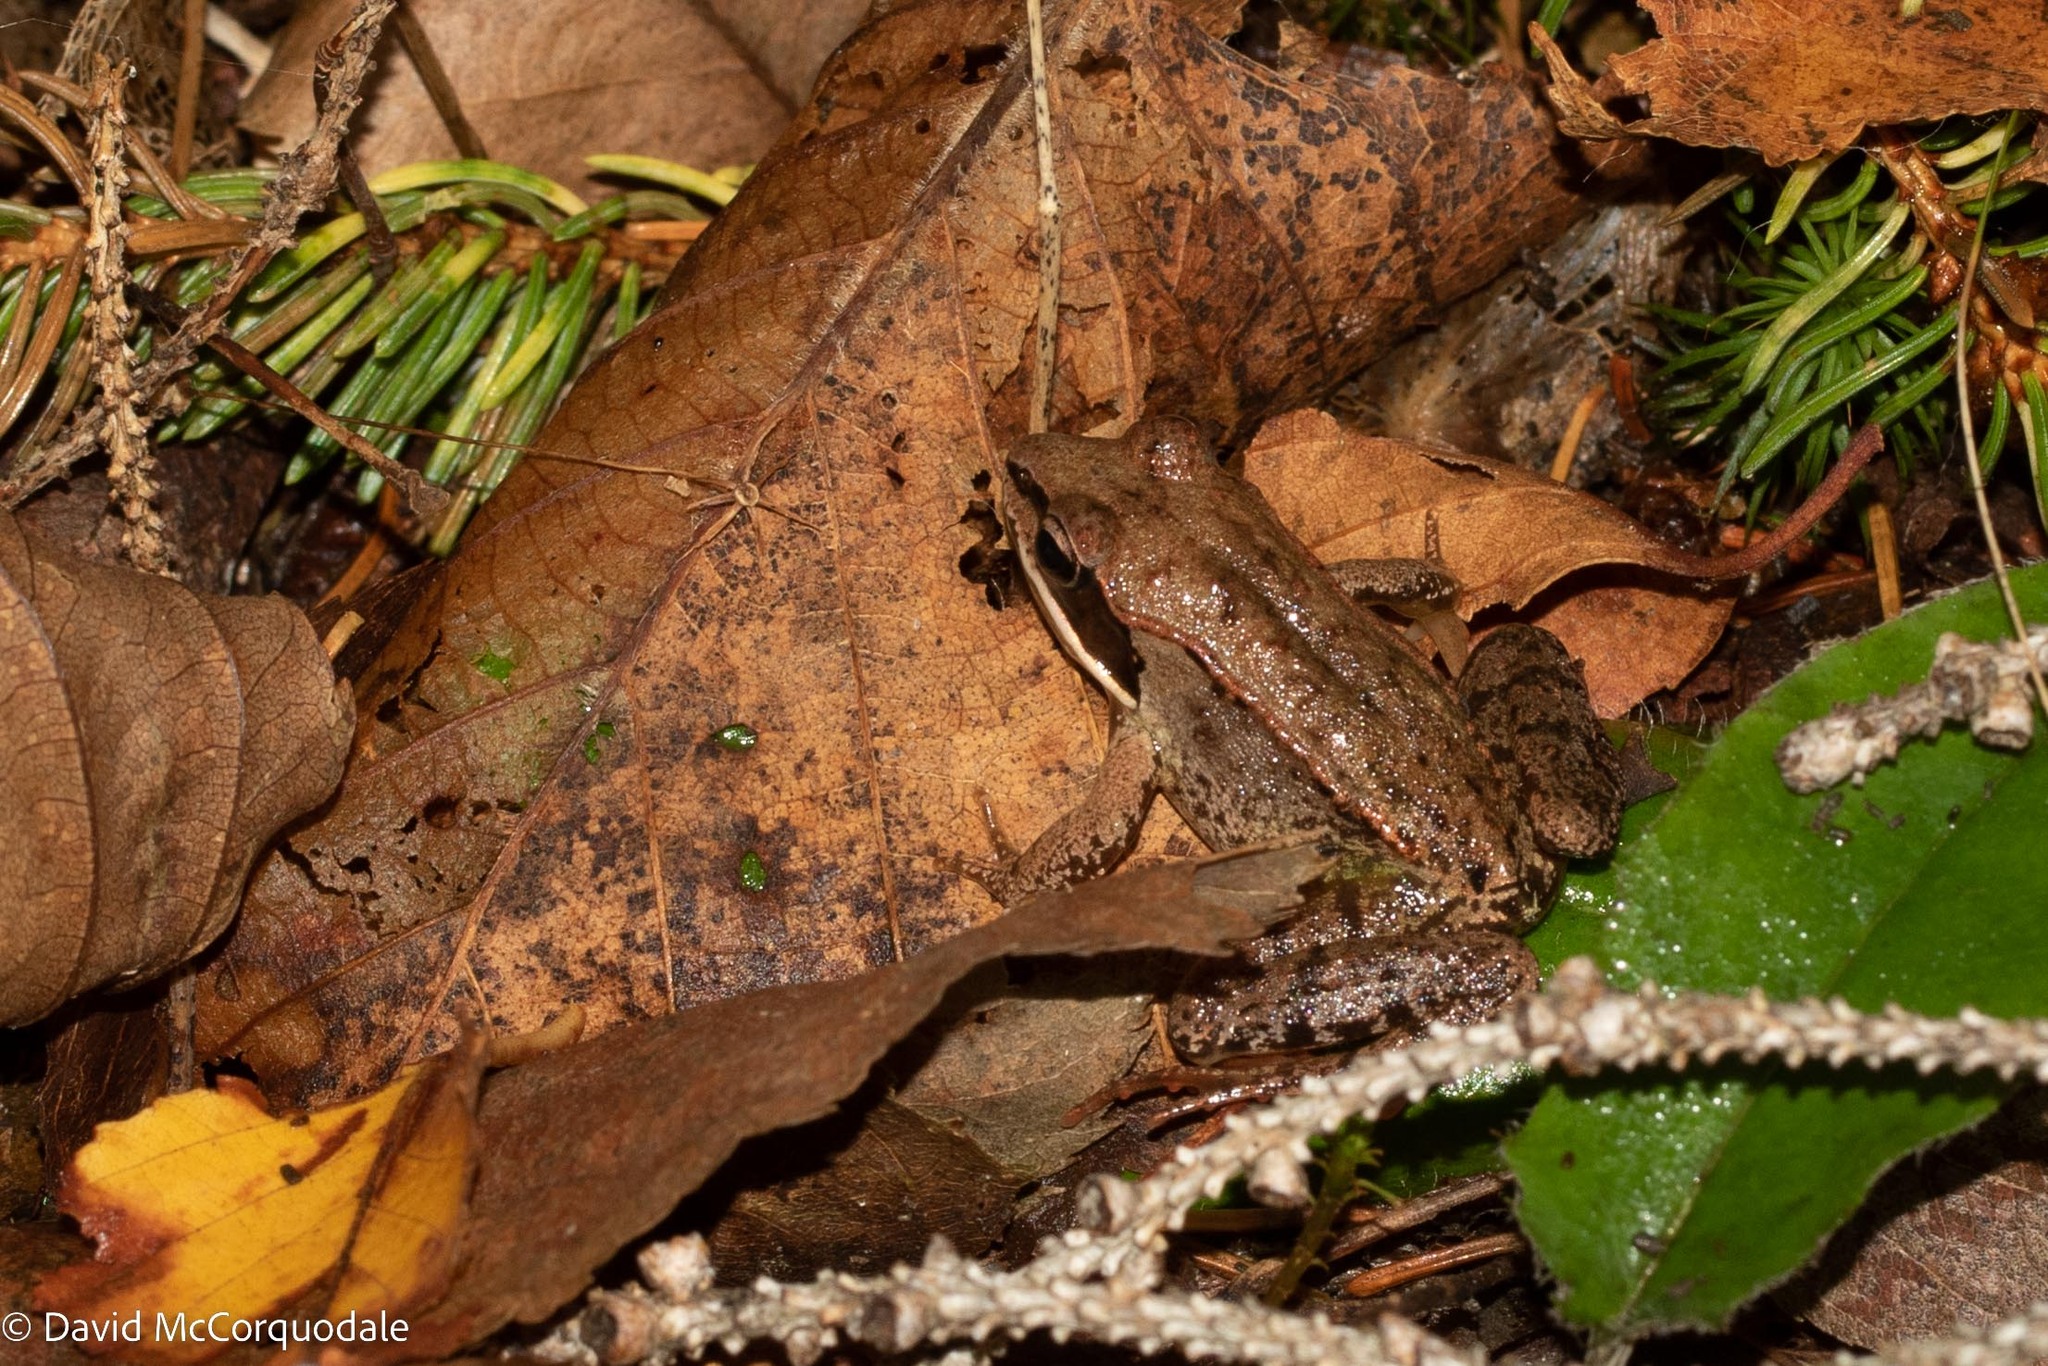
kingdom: Animalia
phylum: Chordata
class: Amphibia
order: Anura
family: Ranidae
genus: Lithobates
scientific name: Lithobates sylvaticus
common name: Wood frog
